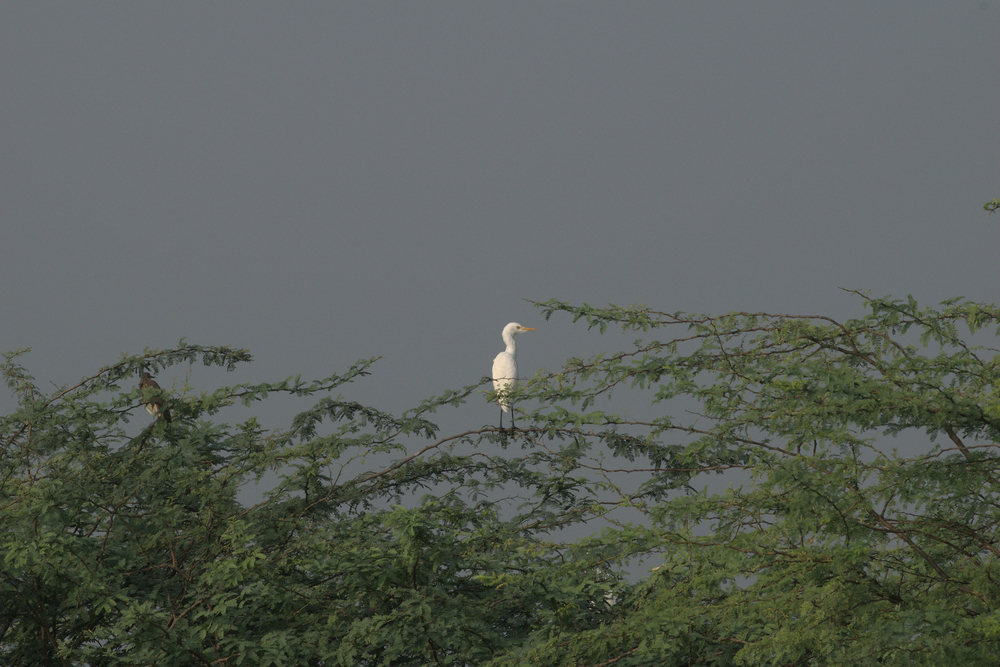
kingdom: Animalia
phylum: Chordata
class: Aves
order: Pelecaniformes
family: Ardeidae
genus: Bubulcus
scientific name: Bubulcus coromandus
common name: Eastern cattle egret
